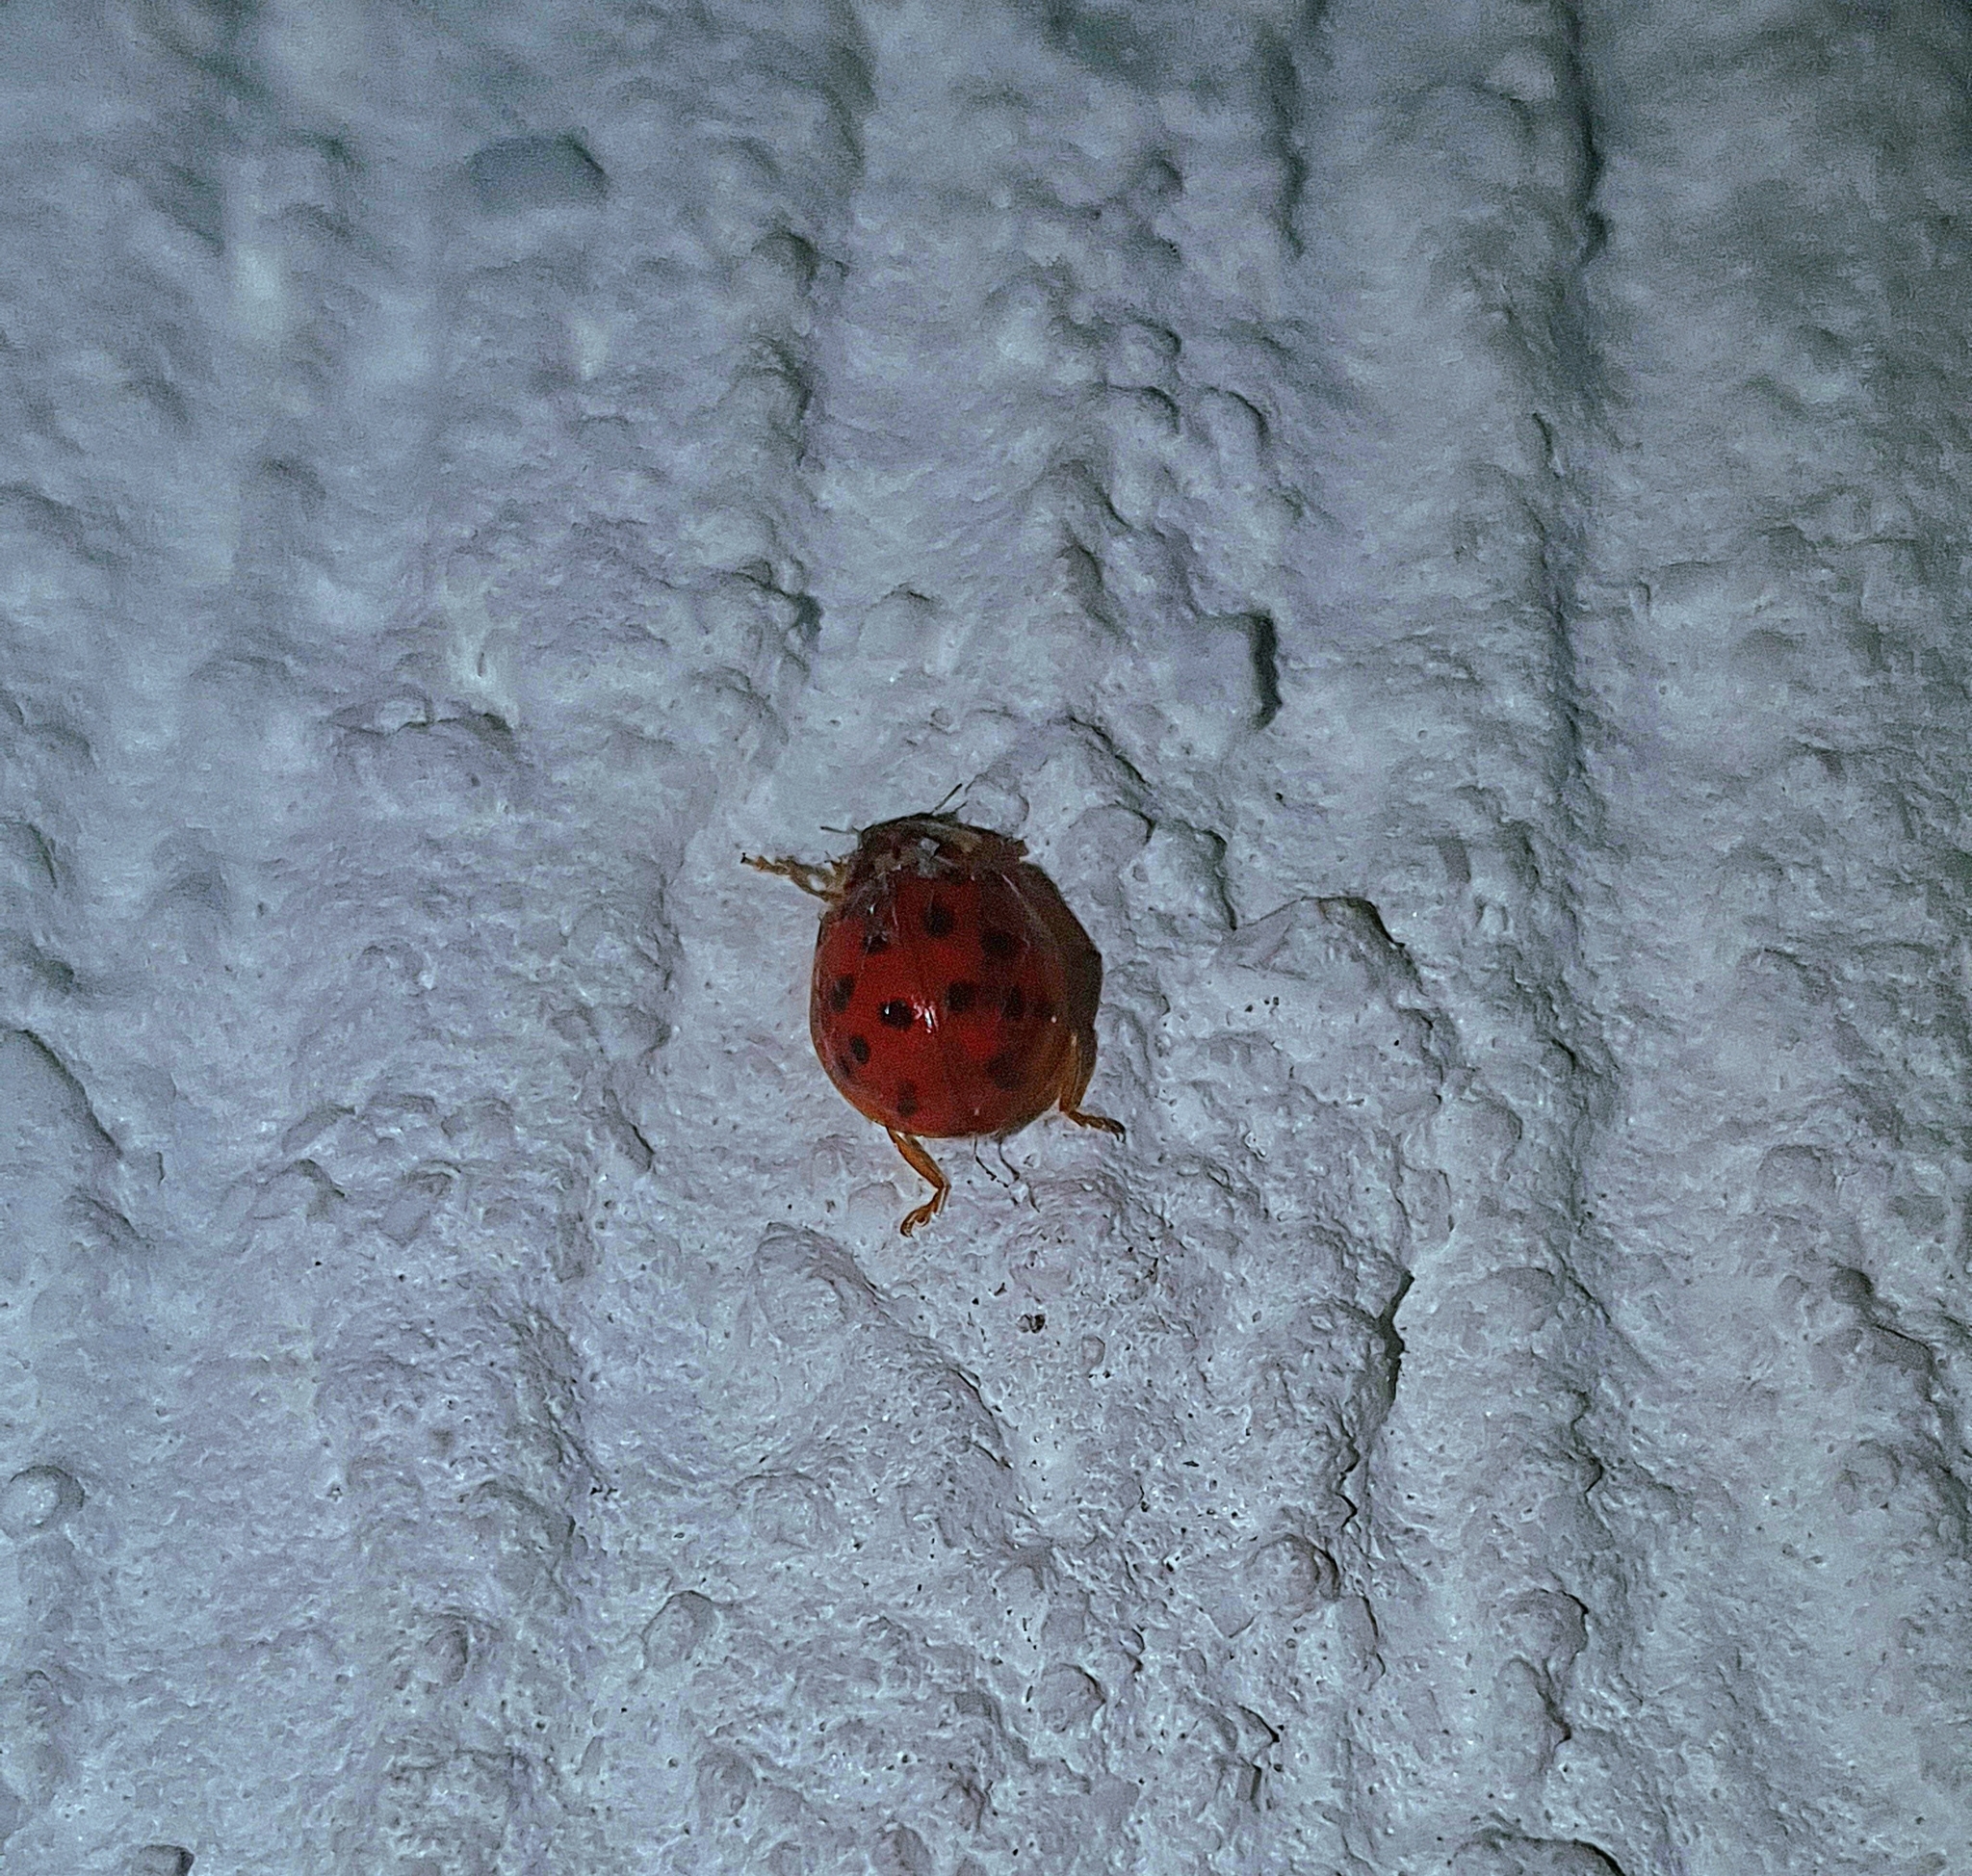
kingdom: Animalia
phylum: Arthropoda
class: Insecta
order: Coleoptera
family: Coccinellidae
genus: Harmonia
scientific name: Harmonia axyridis
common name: Harlequin ladybird
